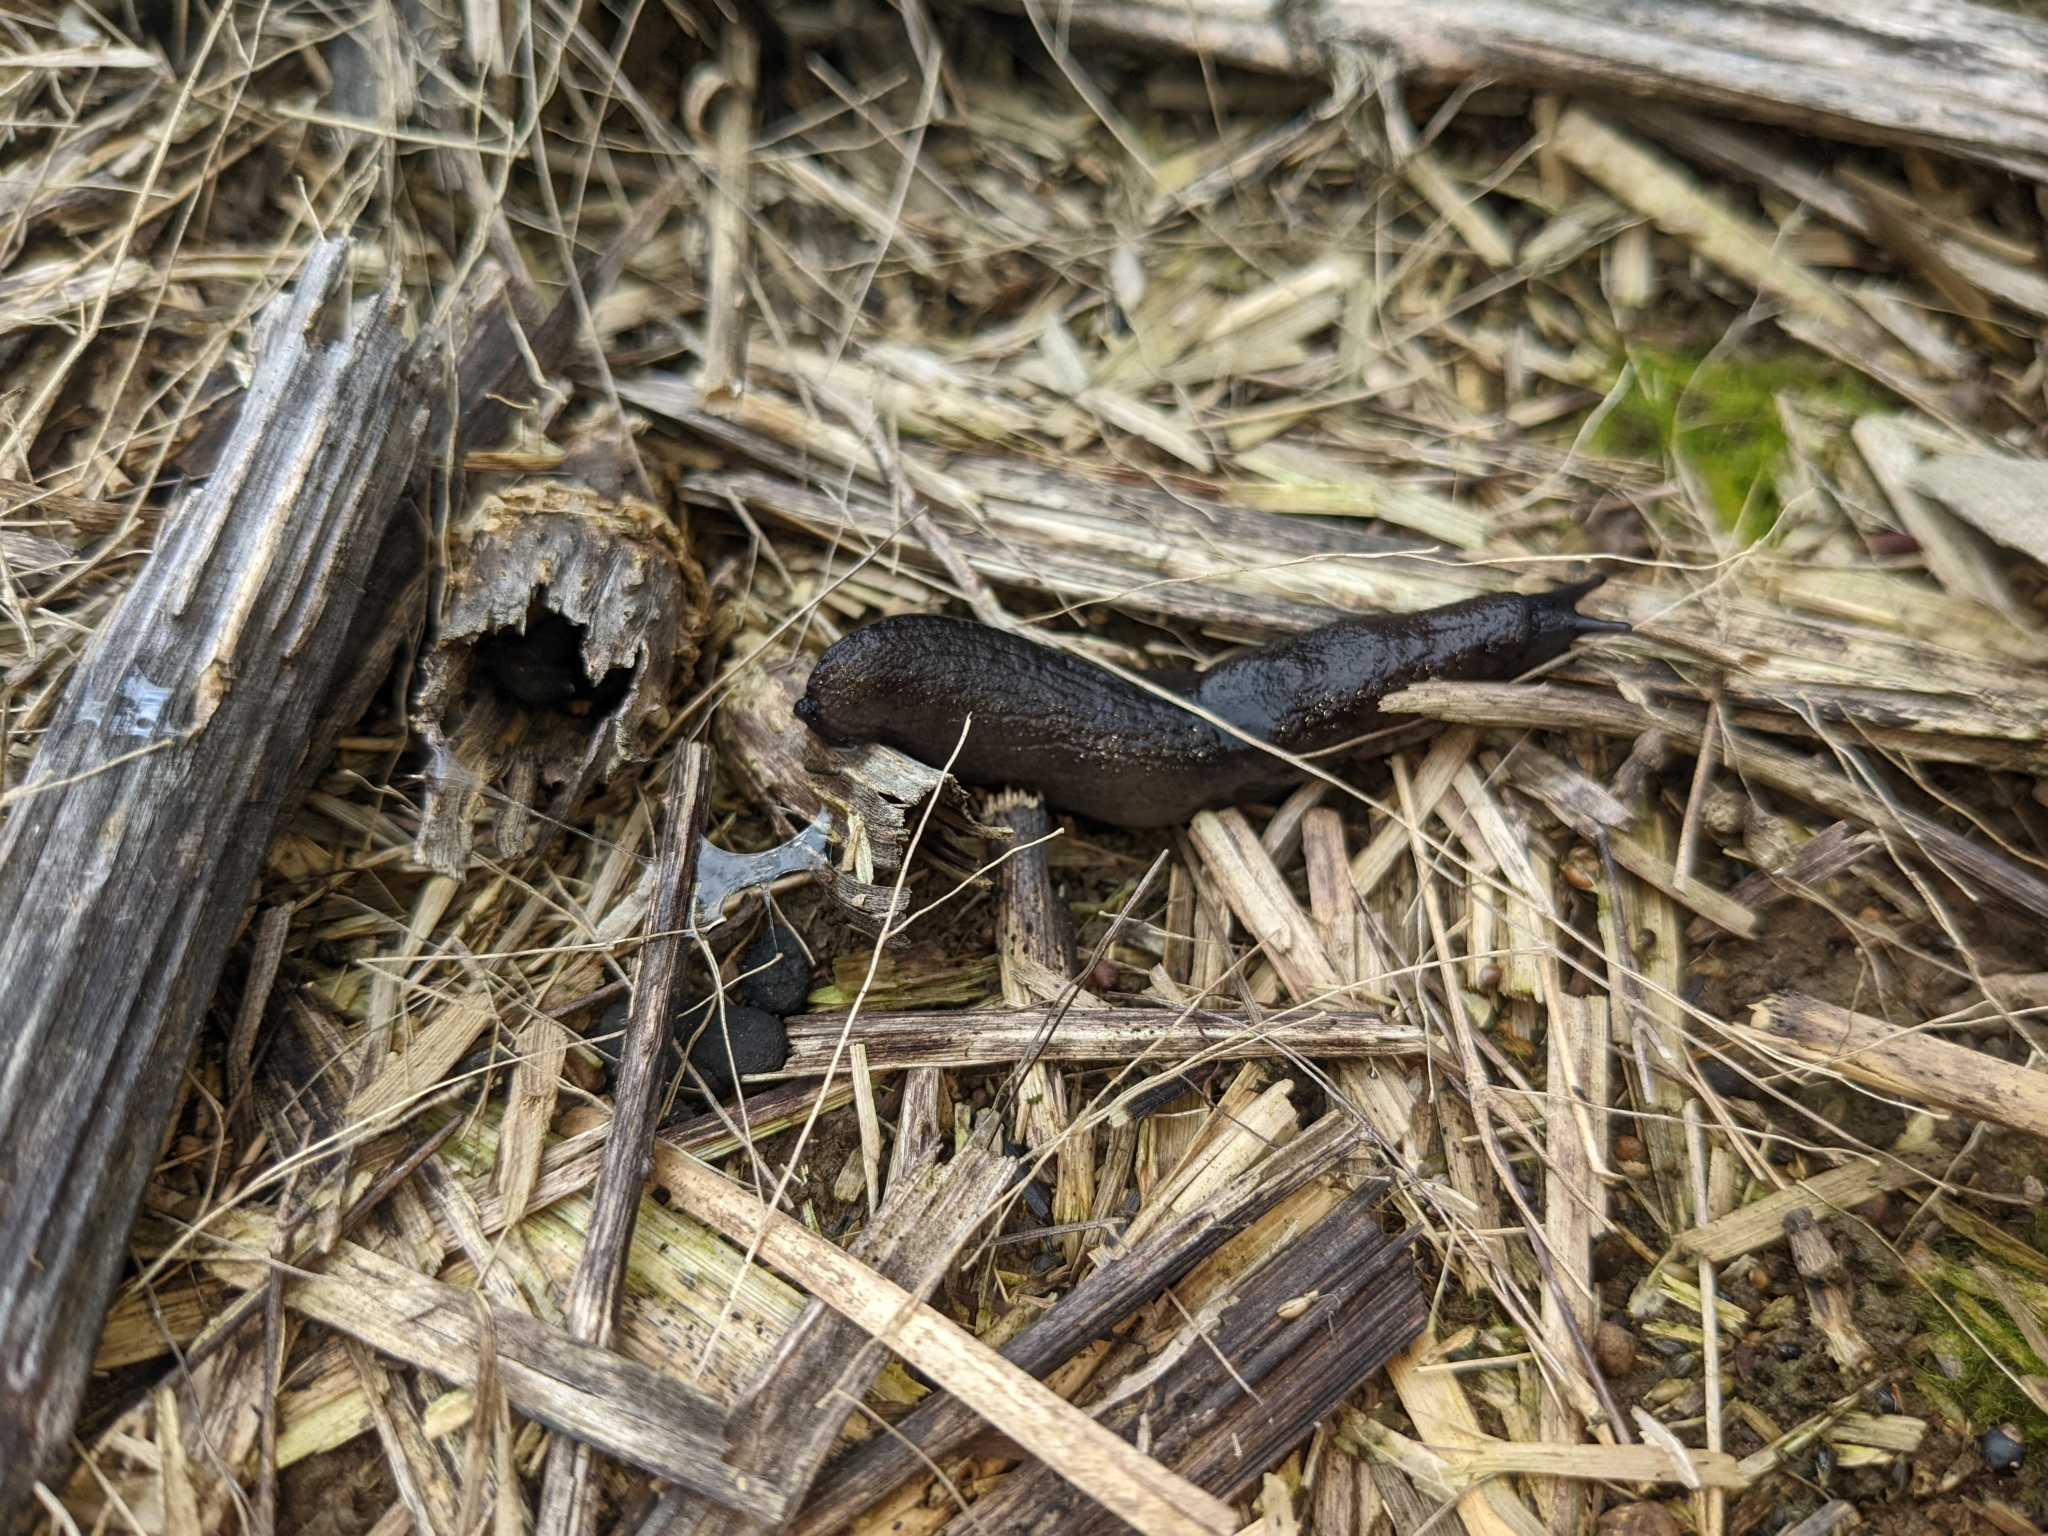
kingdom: Animalia
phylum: Mollusca
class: Gastropoda
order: Stylommatophora
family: Milacidae
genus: Milax
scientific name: Milax gagates
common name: Greenhouse slug
